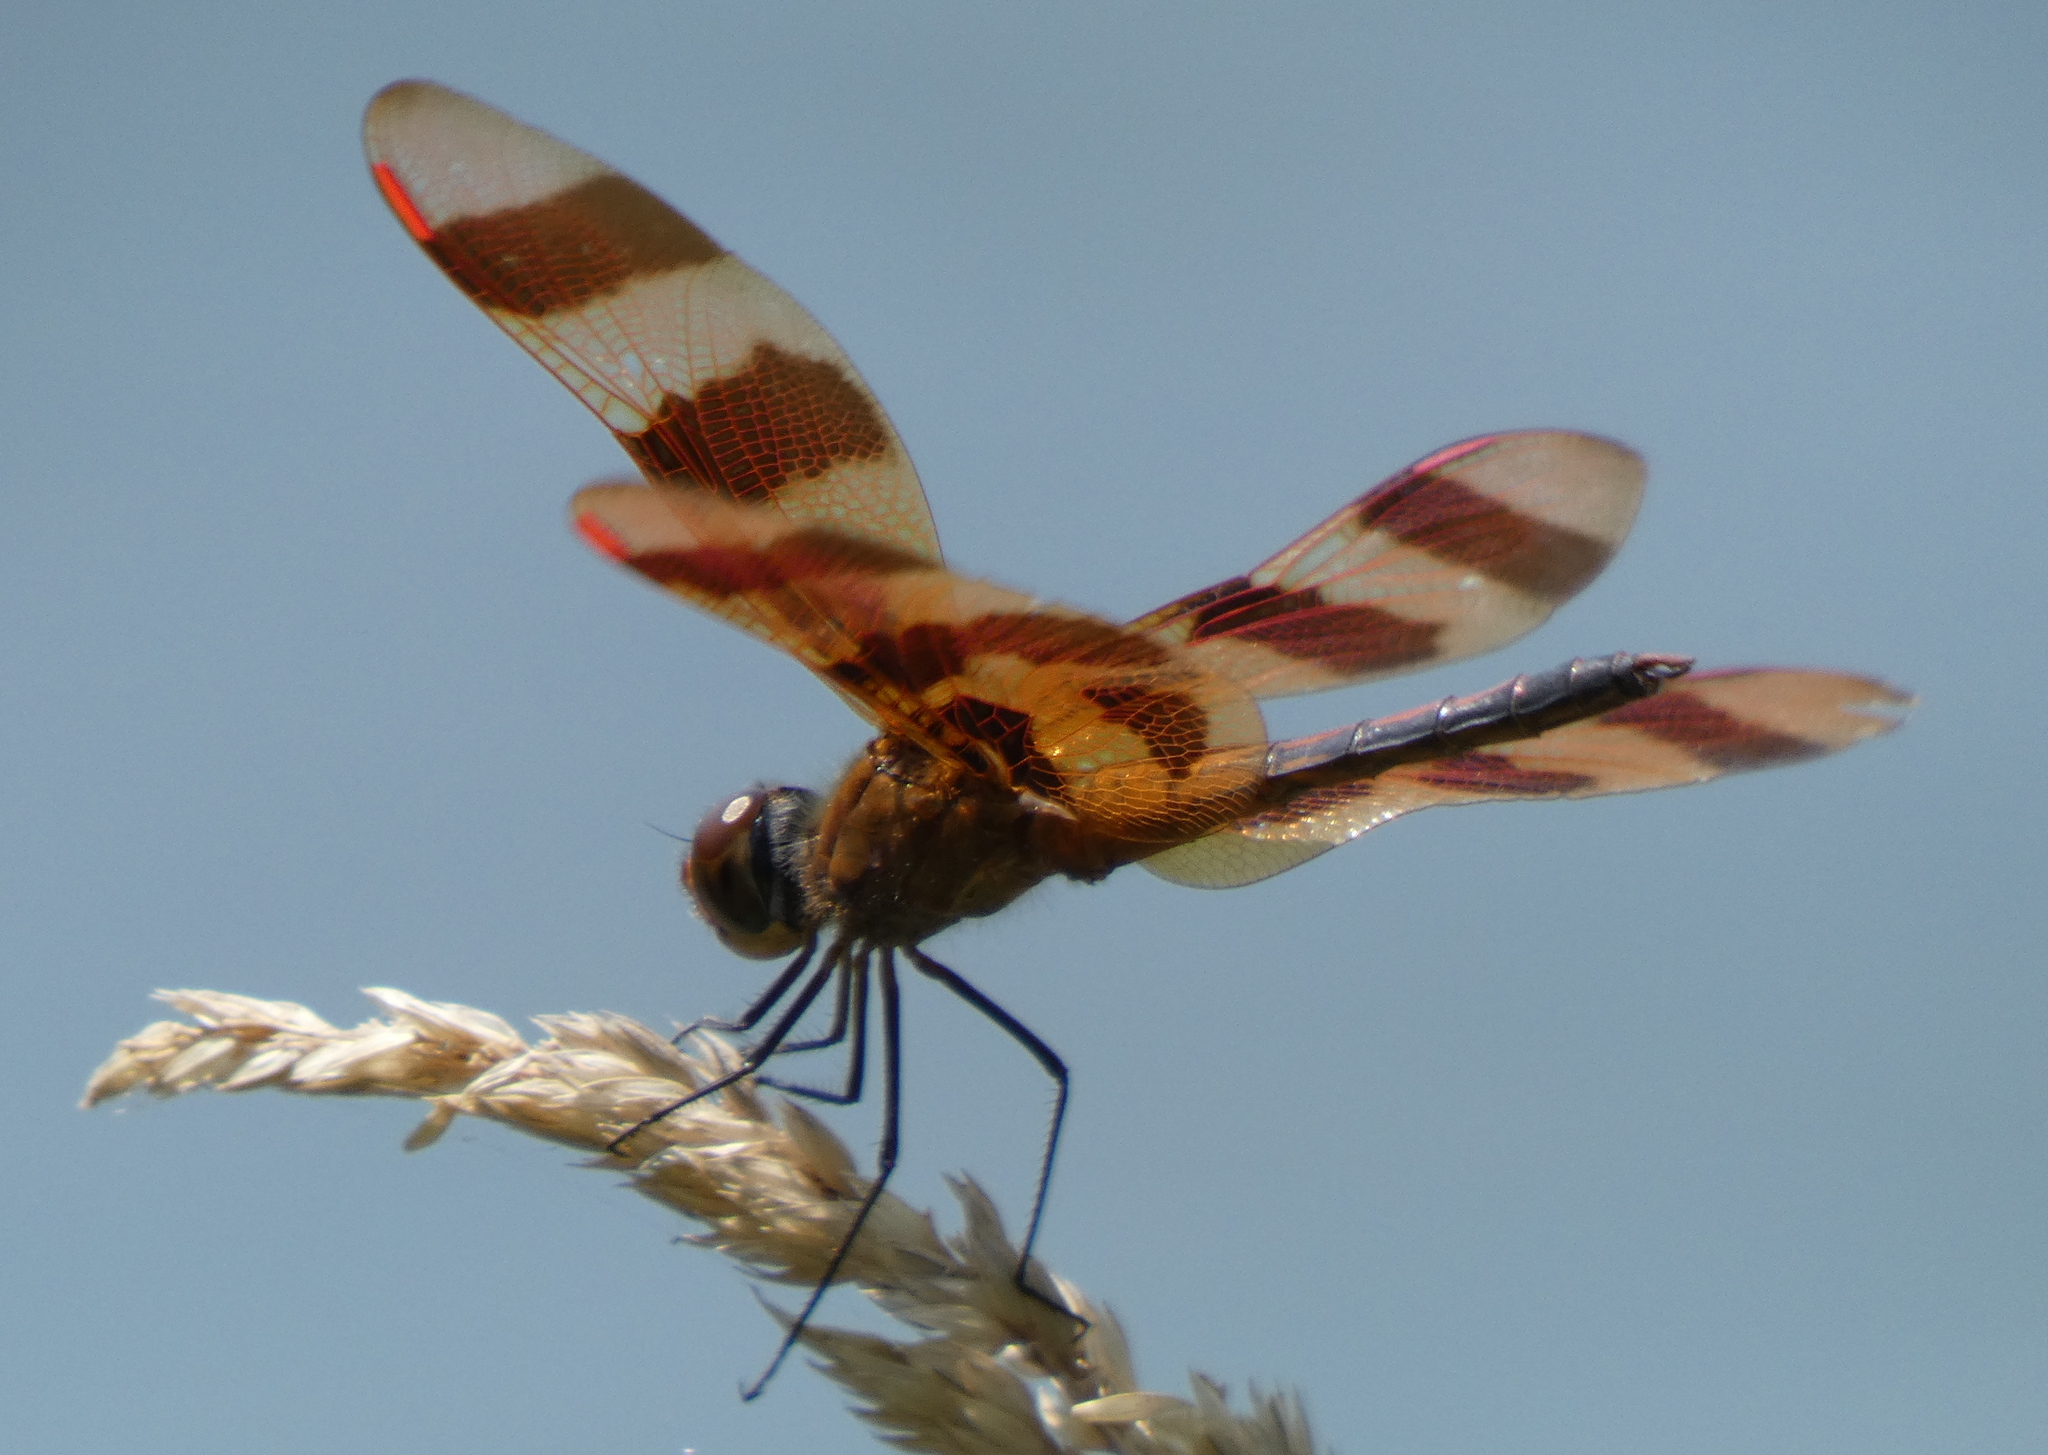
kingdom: Animalia
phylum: Arthropoda
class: Insecta
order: Odonata
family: Libellulidae
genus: Celithemis
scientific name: Celithemis eponina
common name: Halloween pennant
